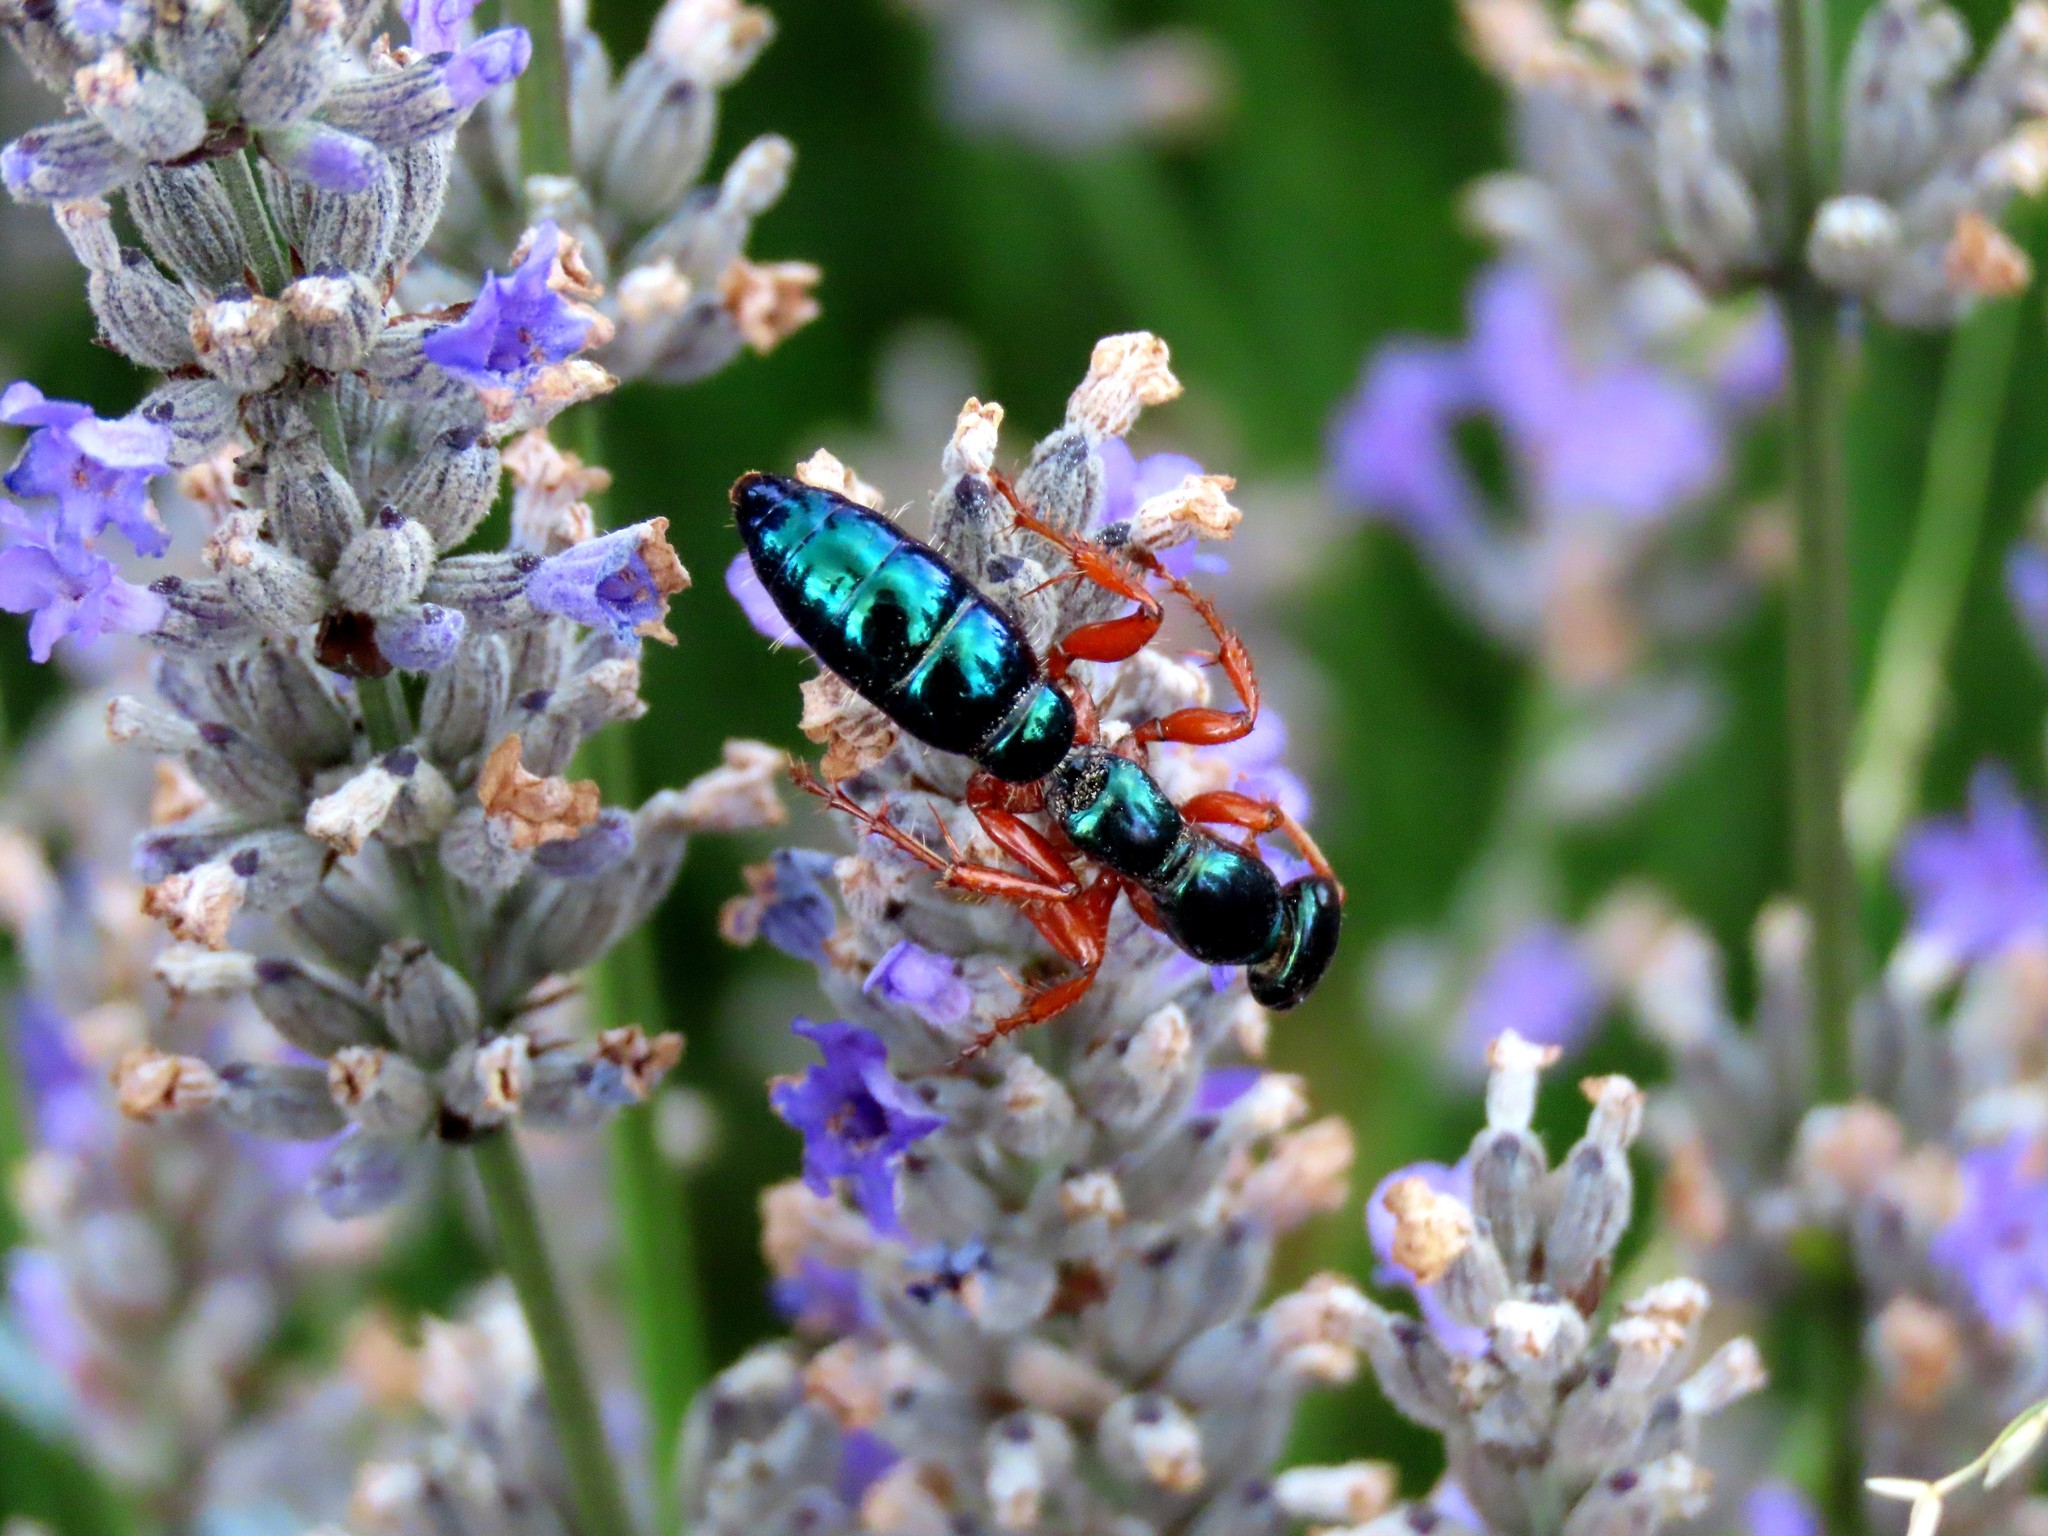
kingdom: Animalia
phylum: Arthropoda
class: Insecta
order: Hymenoptera
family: Tiphiidae
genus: Diamma
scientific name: Diamma
